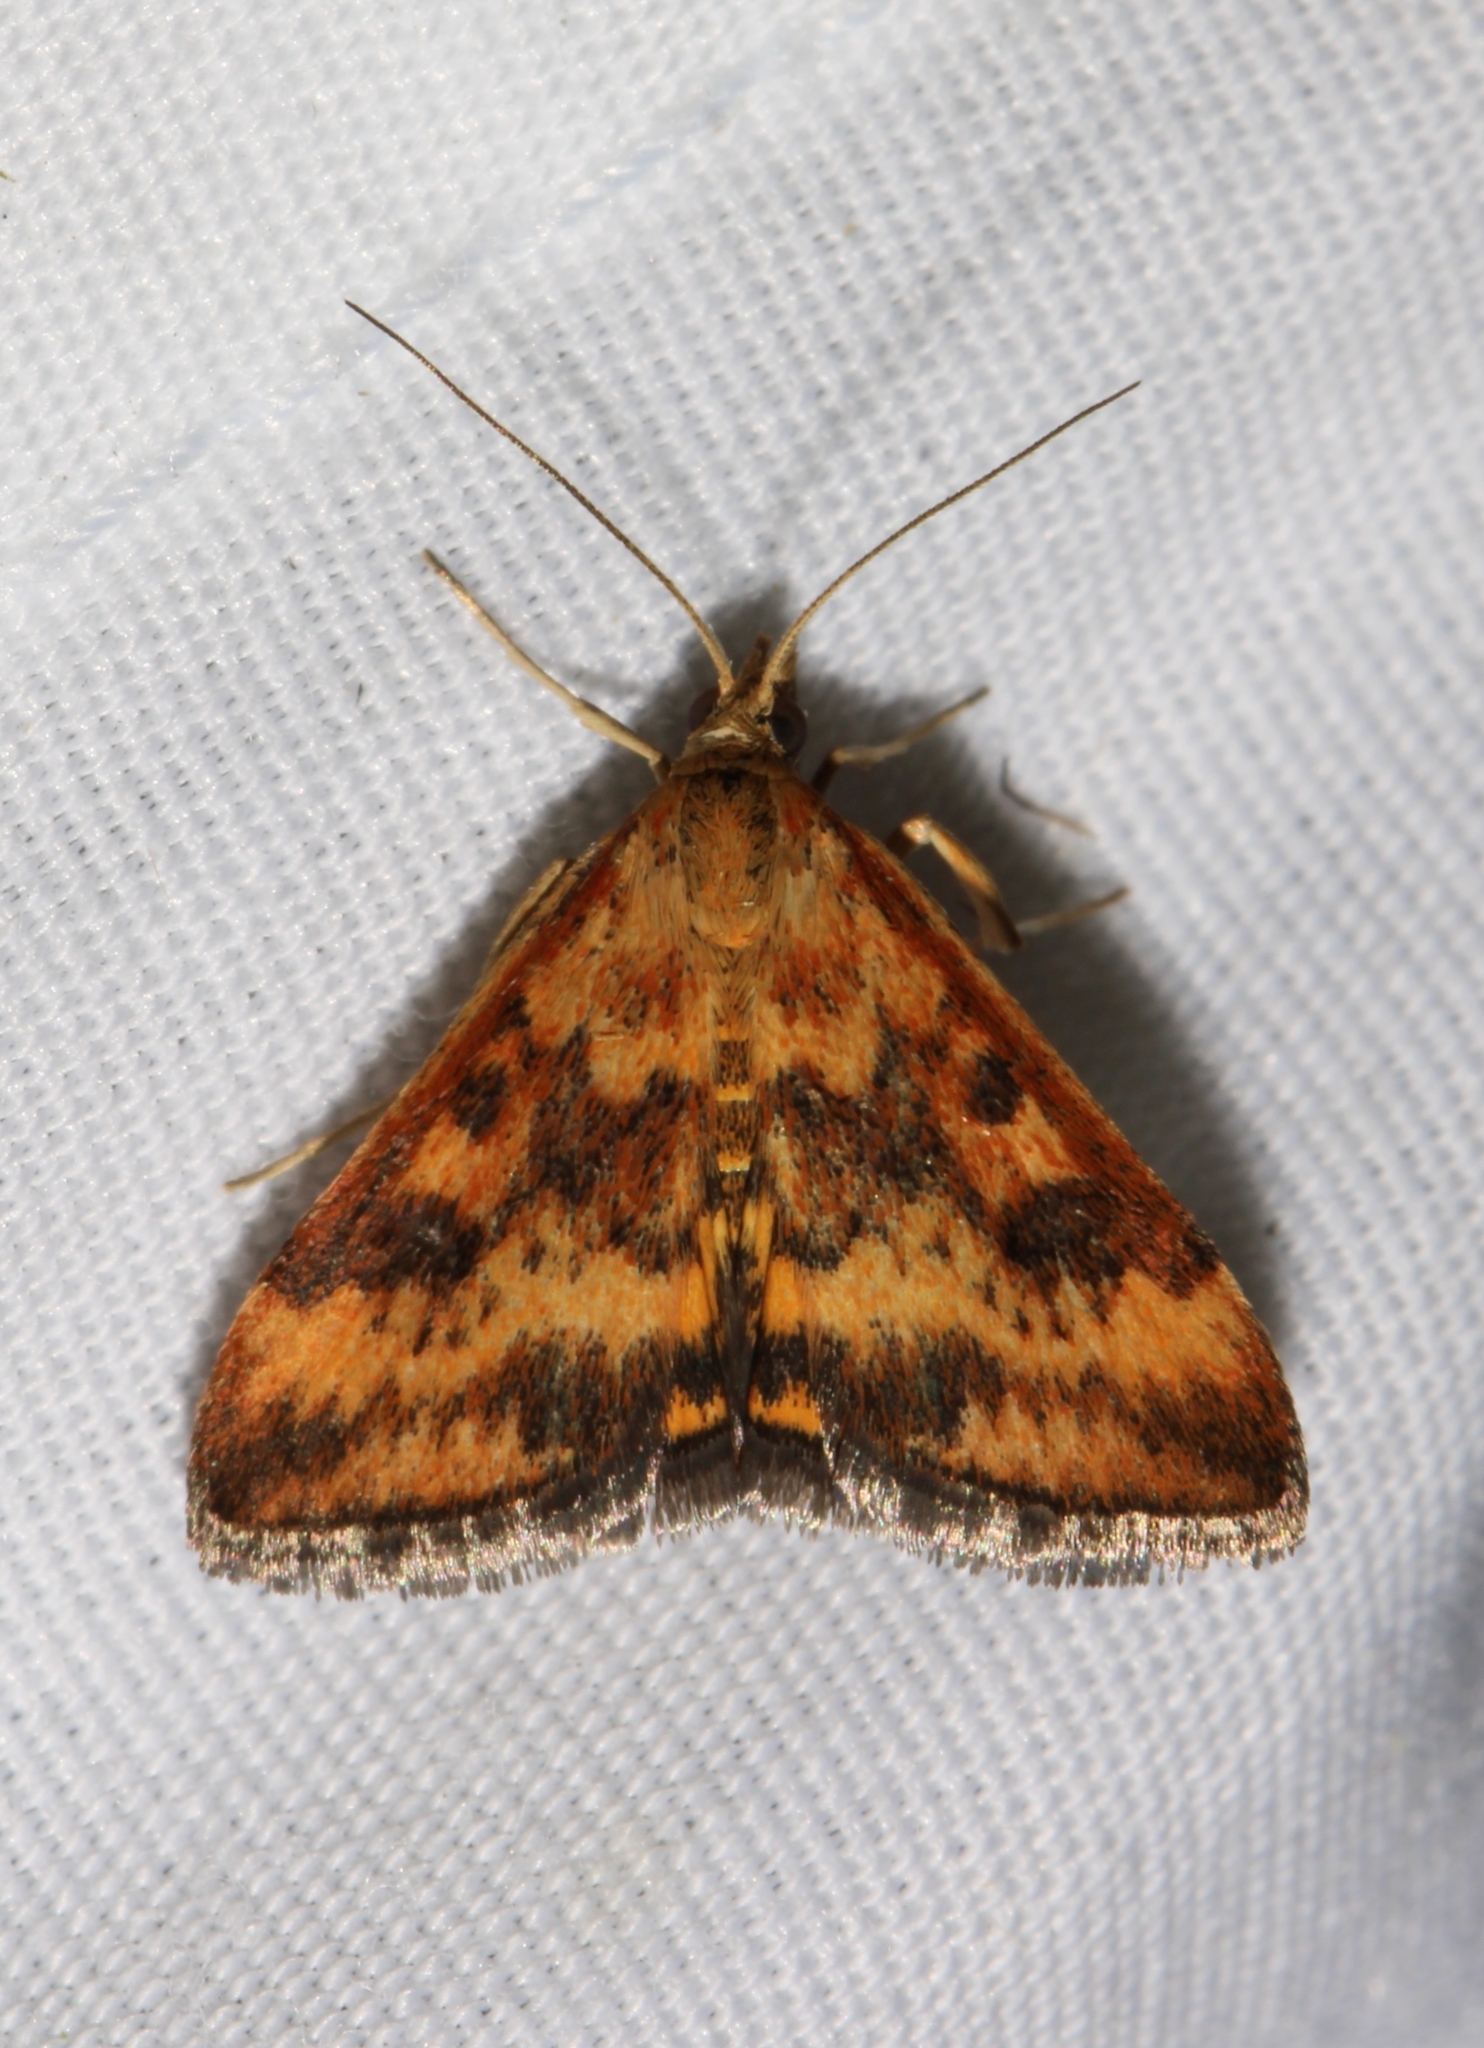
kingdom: Animalia
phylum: Arthropoda
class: Insecta
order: Lepidoptera
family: Crambidae
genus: Pyrausta
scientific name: Pyrausta subsequalis
